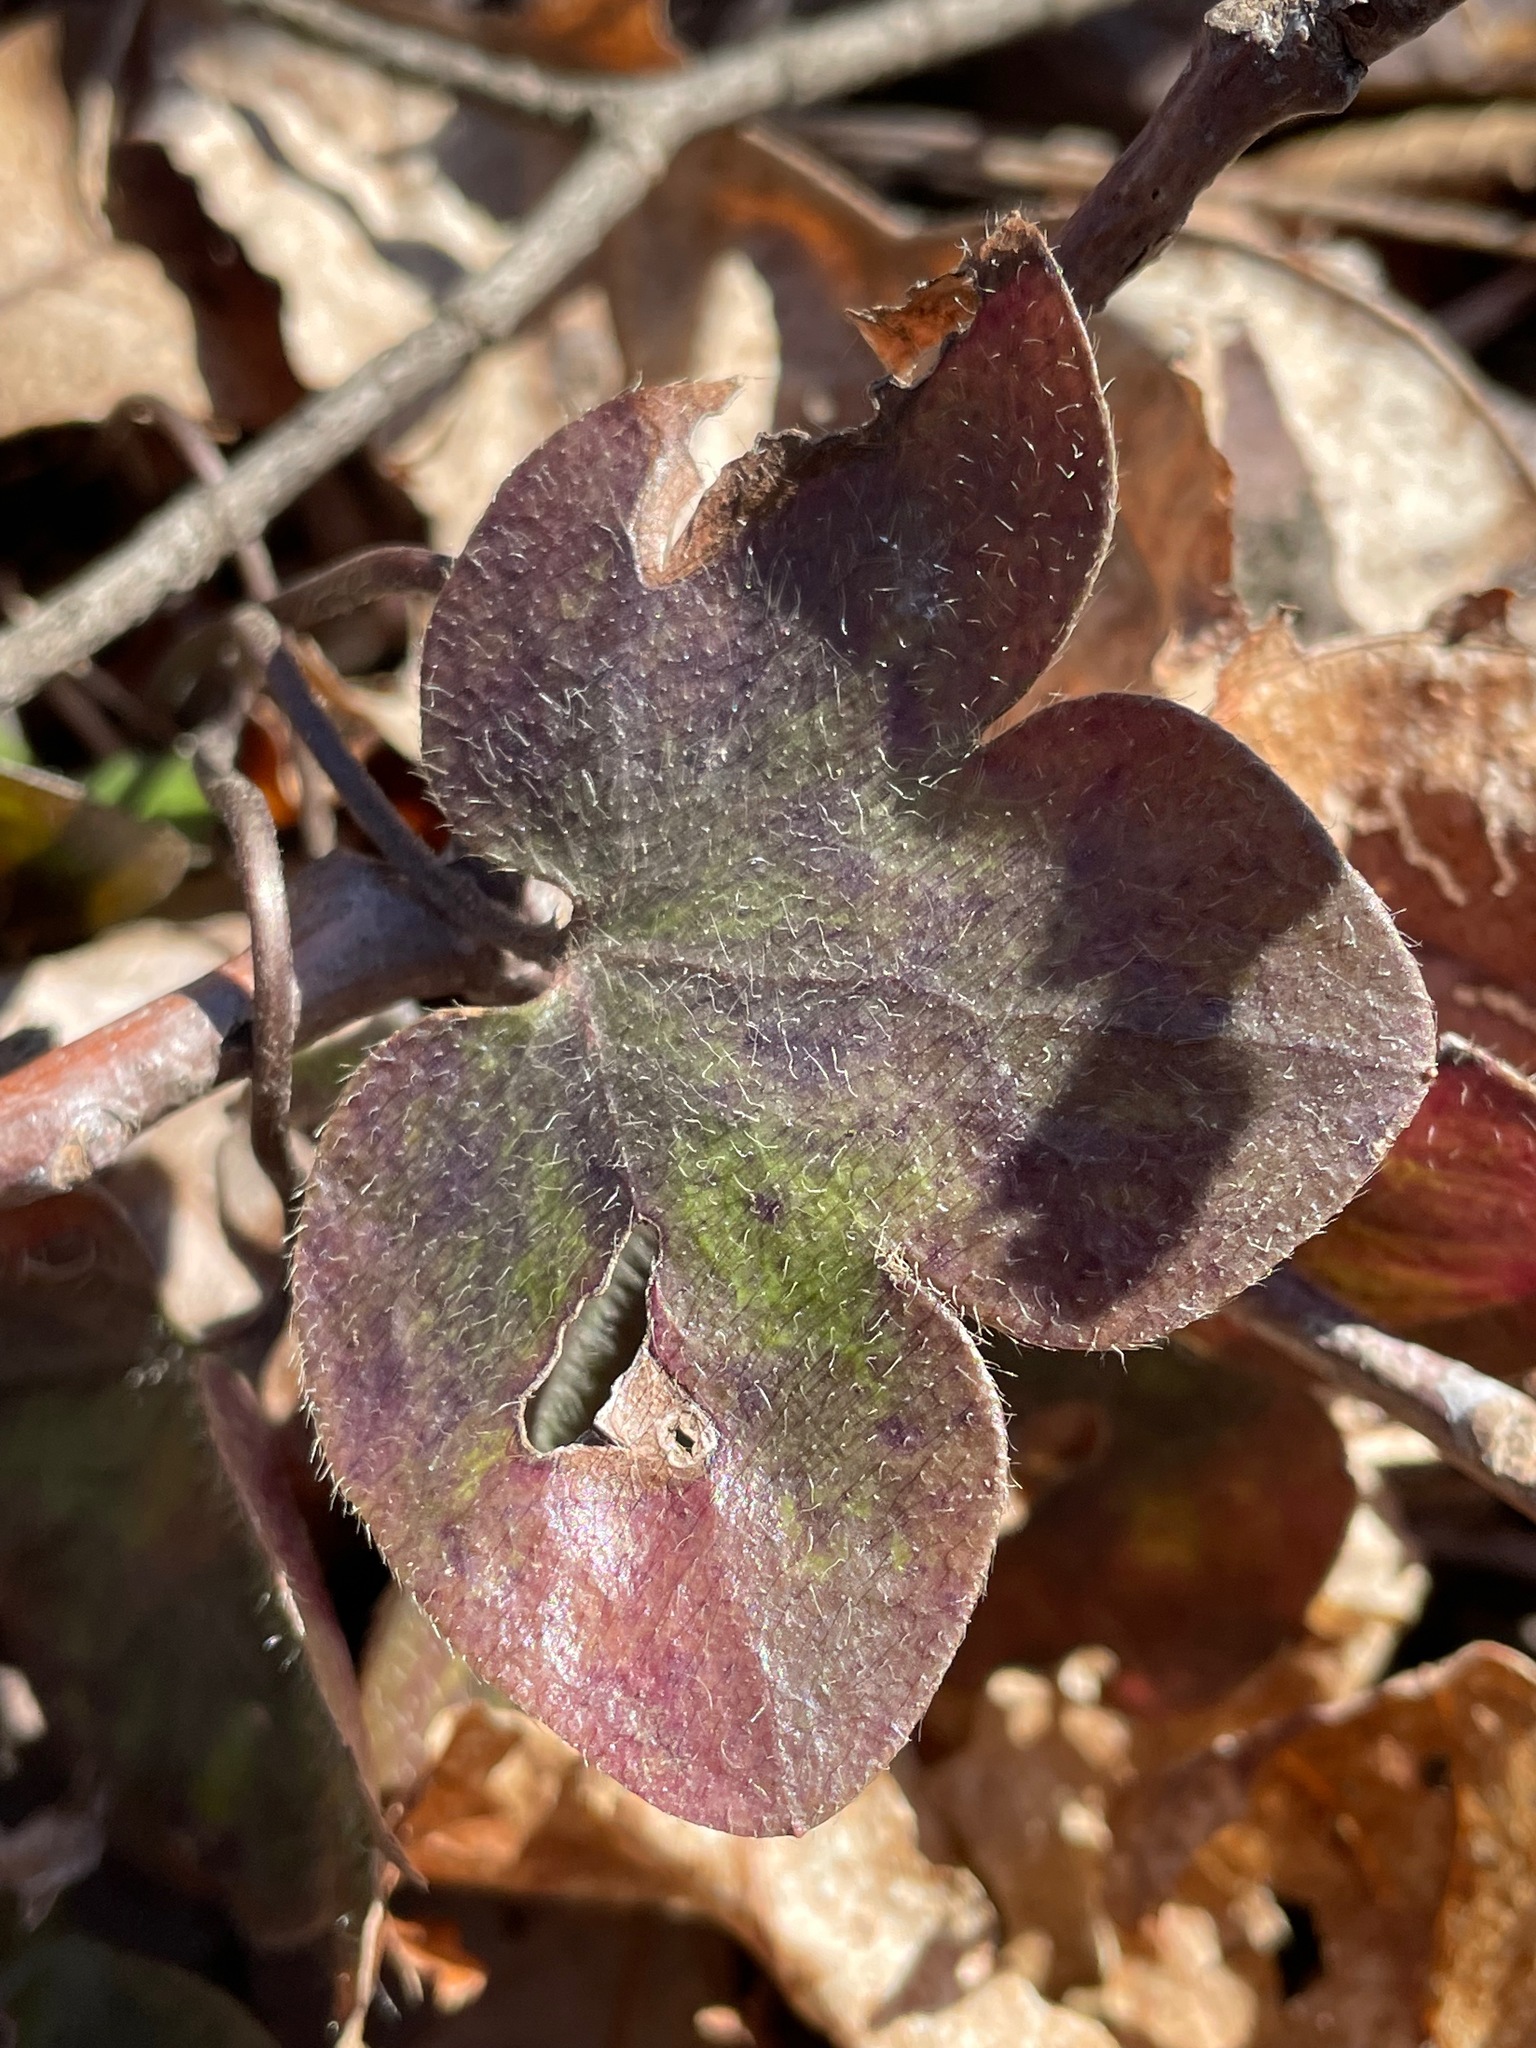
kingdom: Plantae
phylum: Tracheophyta
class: Magnoliopsida
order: Ranunculales
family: Ranunculaceae
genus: Hepatica
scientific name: Hepatica americana
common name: American hepatica
